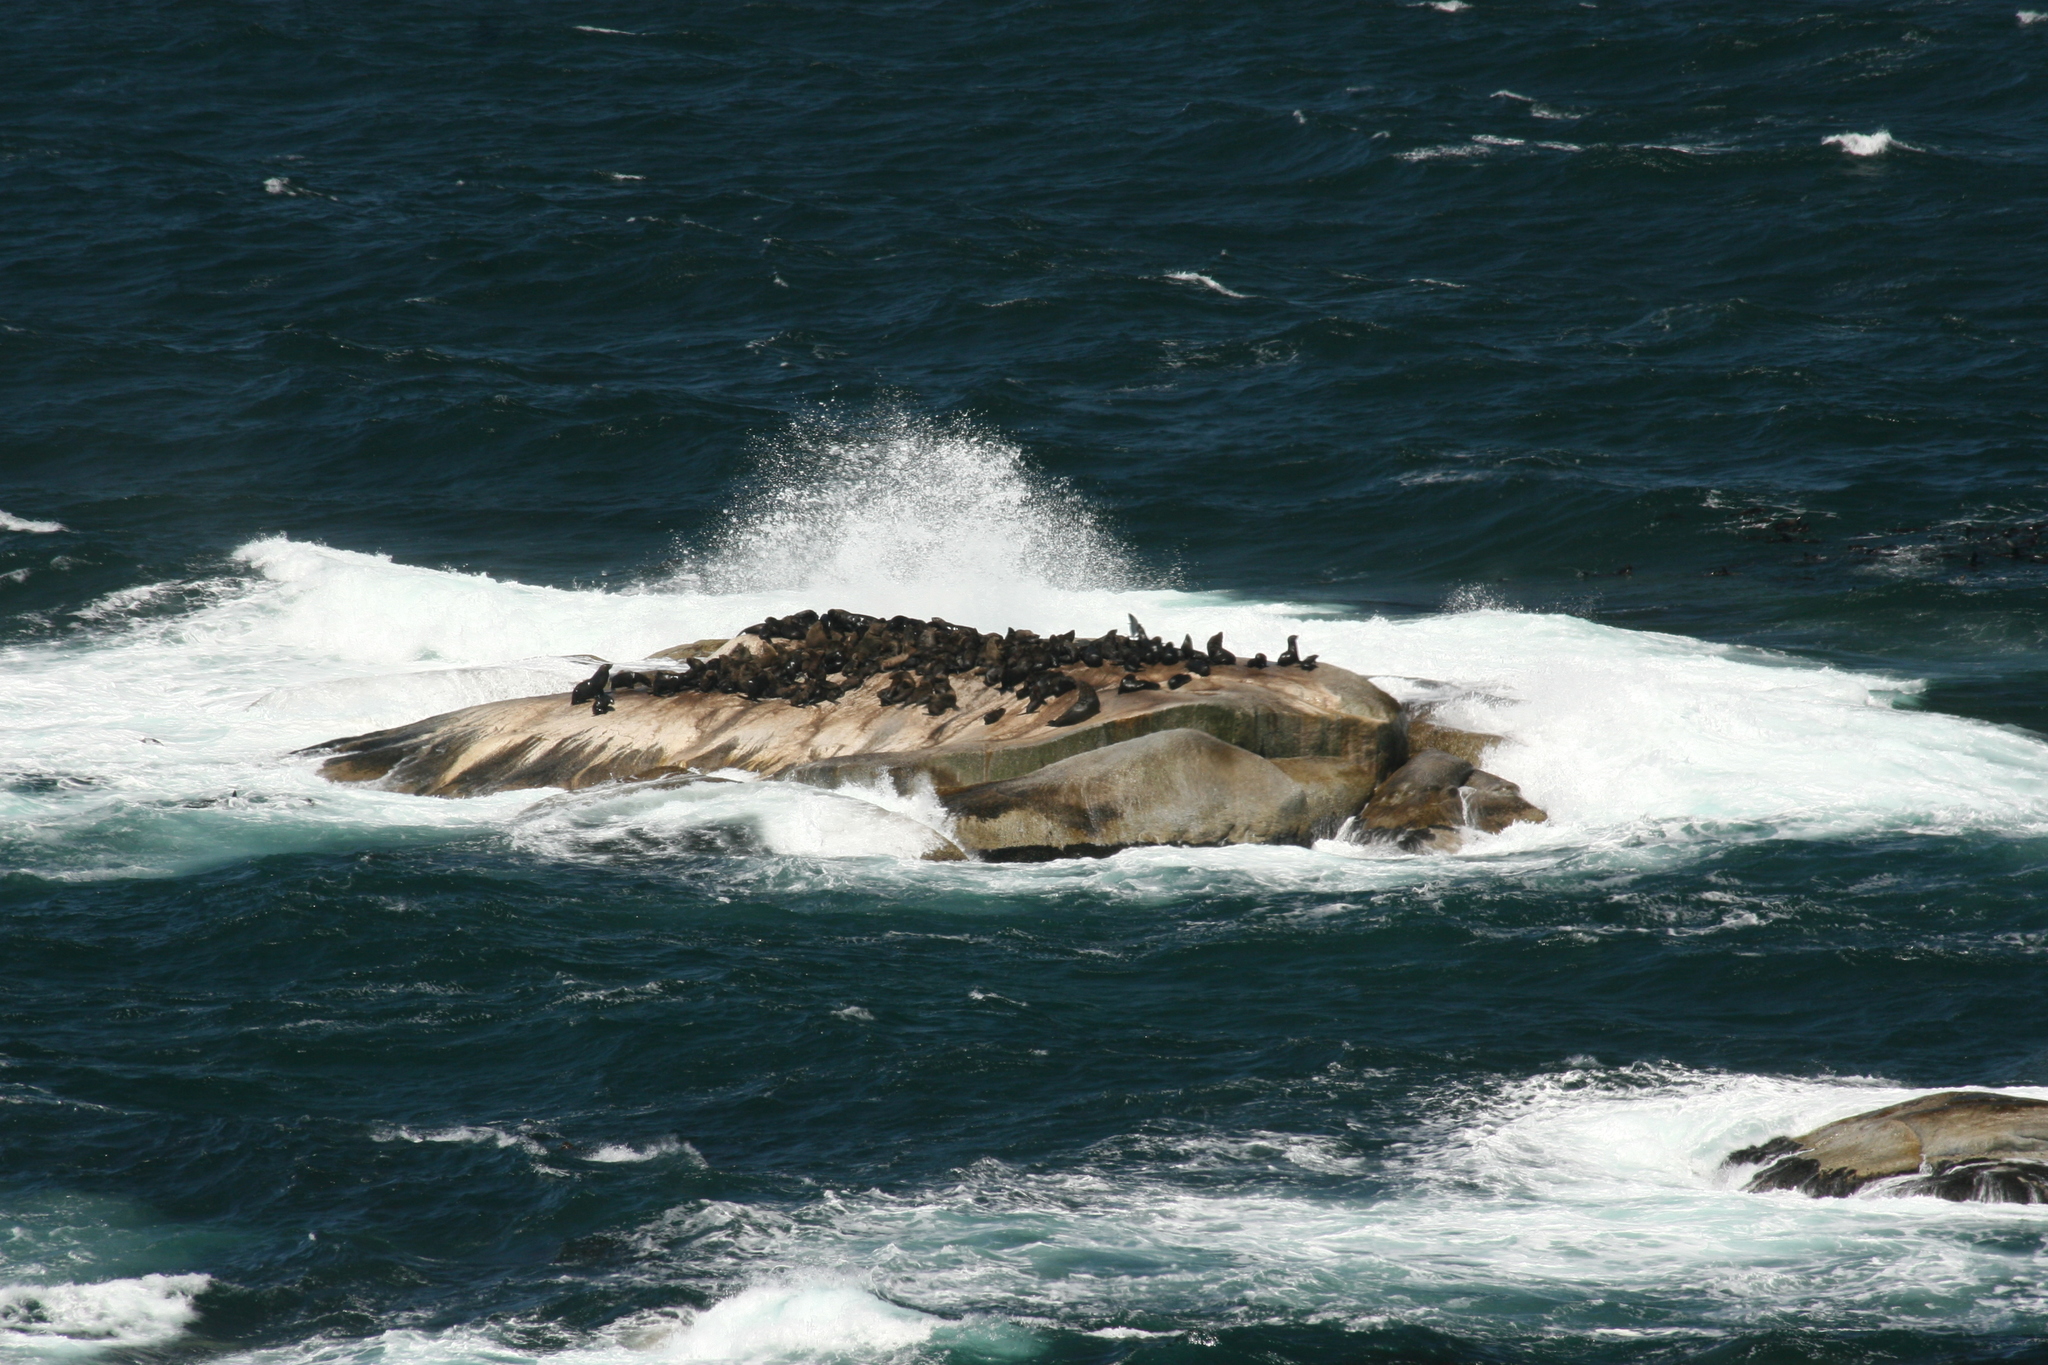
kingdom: Animalia
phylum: Chordata
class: Mammalia
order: Carnivora
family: Otariidae
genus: Arctocephalus
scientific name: Arctocephalus pusillus
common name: Brown fur seal
